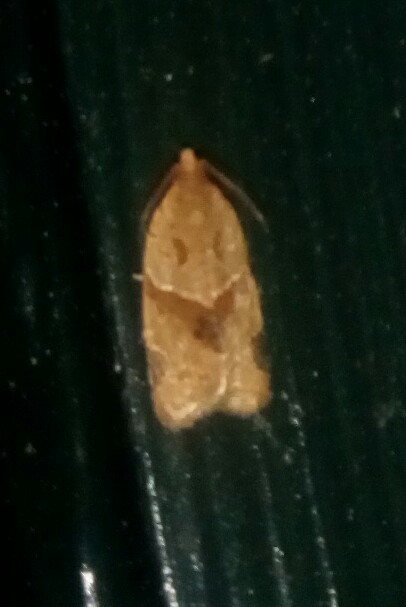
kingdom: Animalia
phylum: Arthropoda
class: Insecta
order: Lepidoptera
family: Tortricidae
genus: Clepsis
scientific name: Clepsis peritana
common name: Garden tortrix
